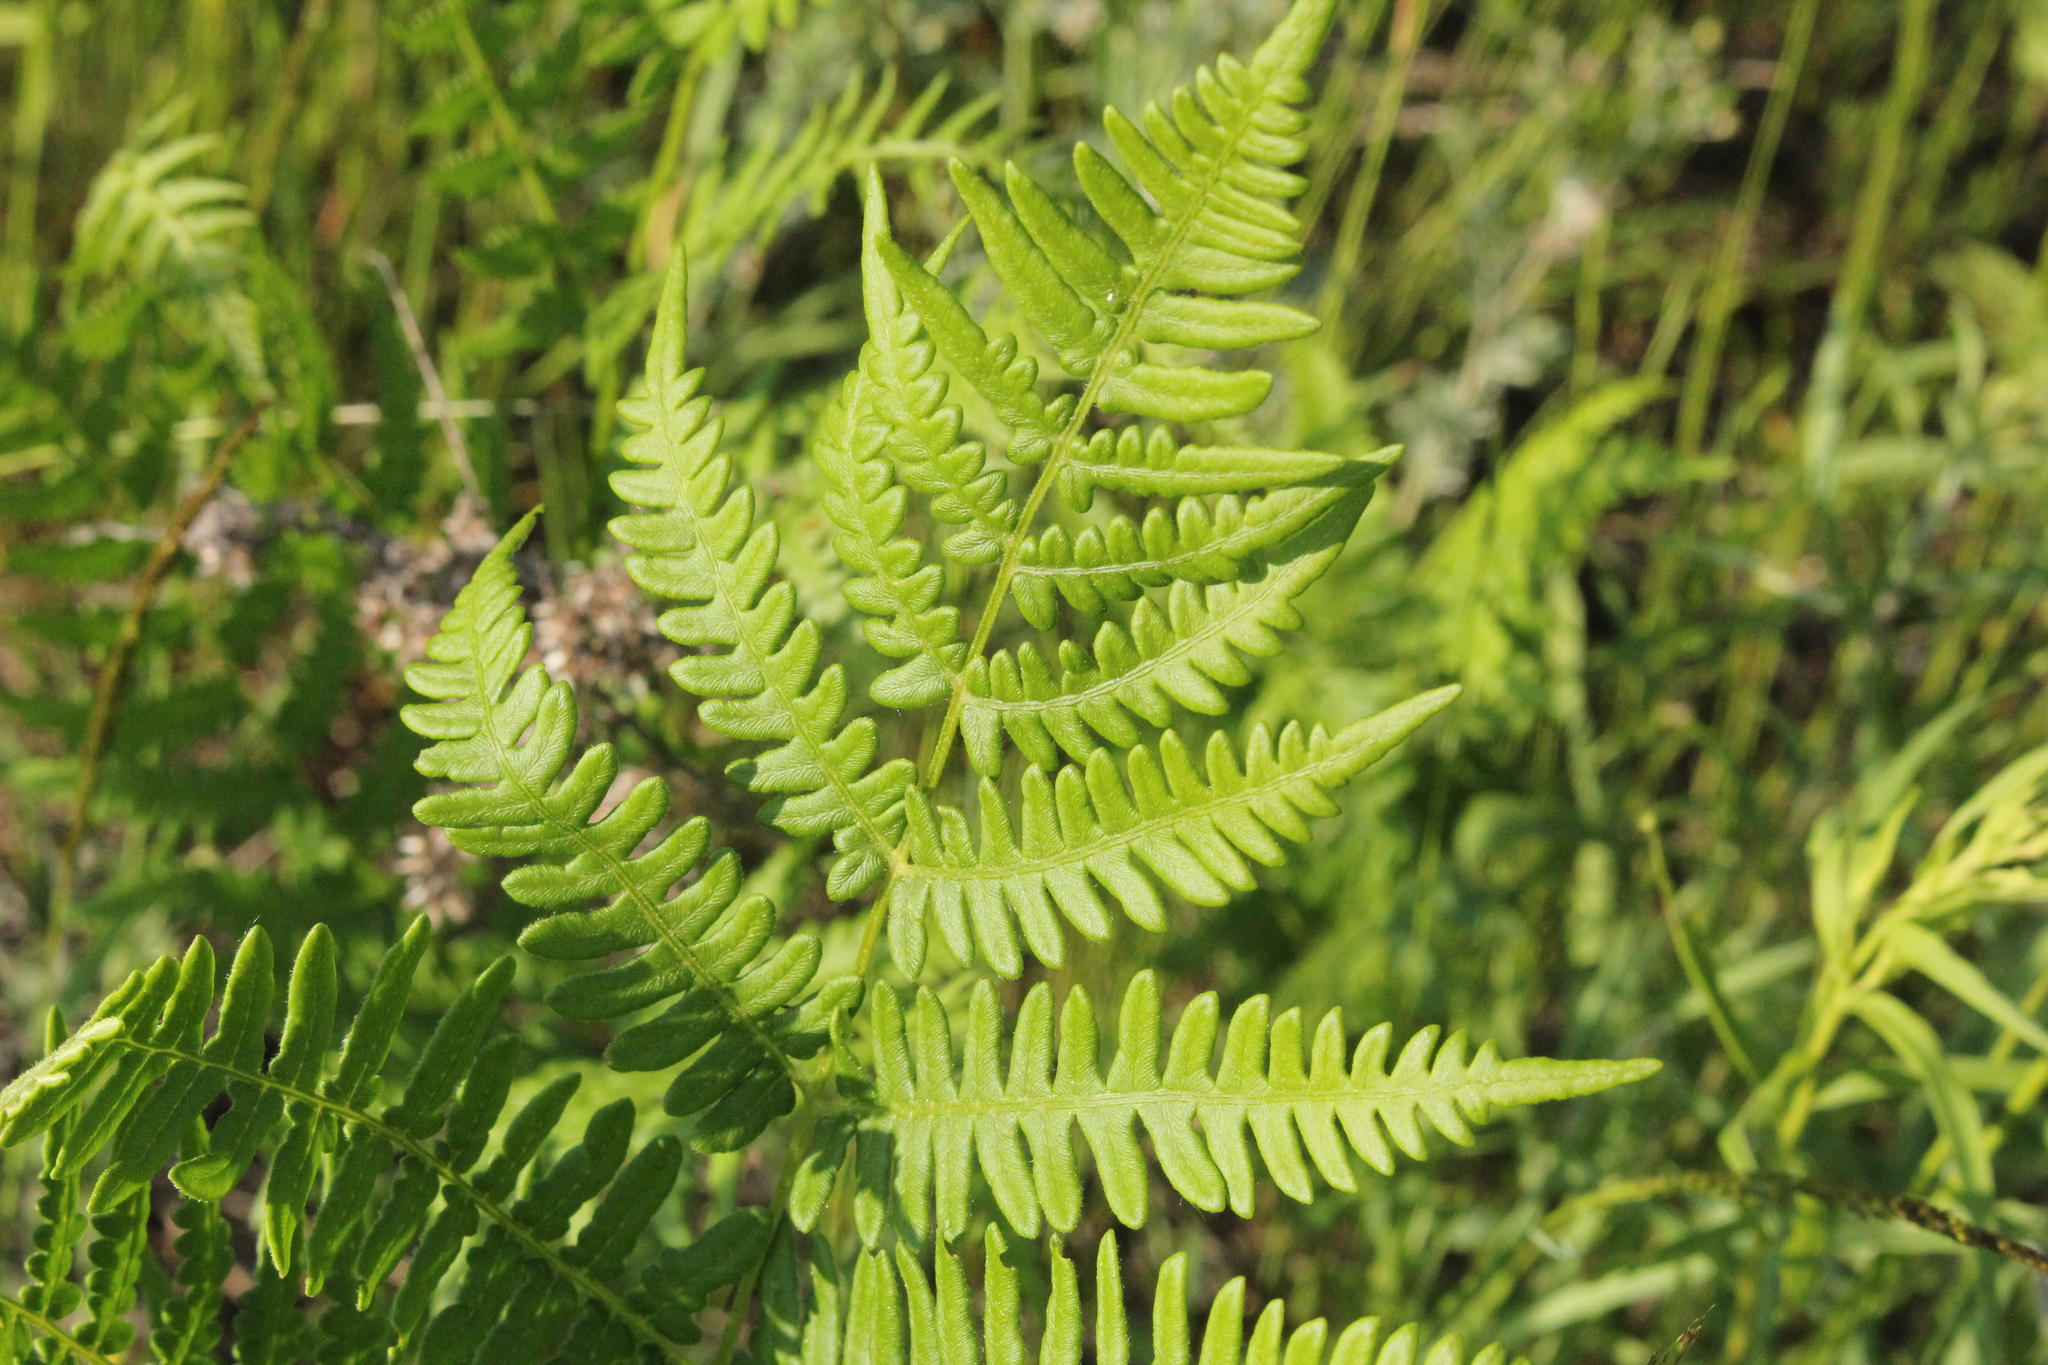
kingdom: Plantae
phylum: Tracheophyta
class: Polypodiopsida
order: Polypodiales
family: Dennstaedtiaceae
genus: Pteridium
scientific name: Pteridium aquilinum
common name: Bracken
